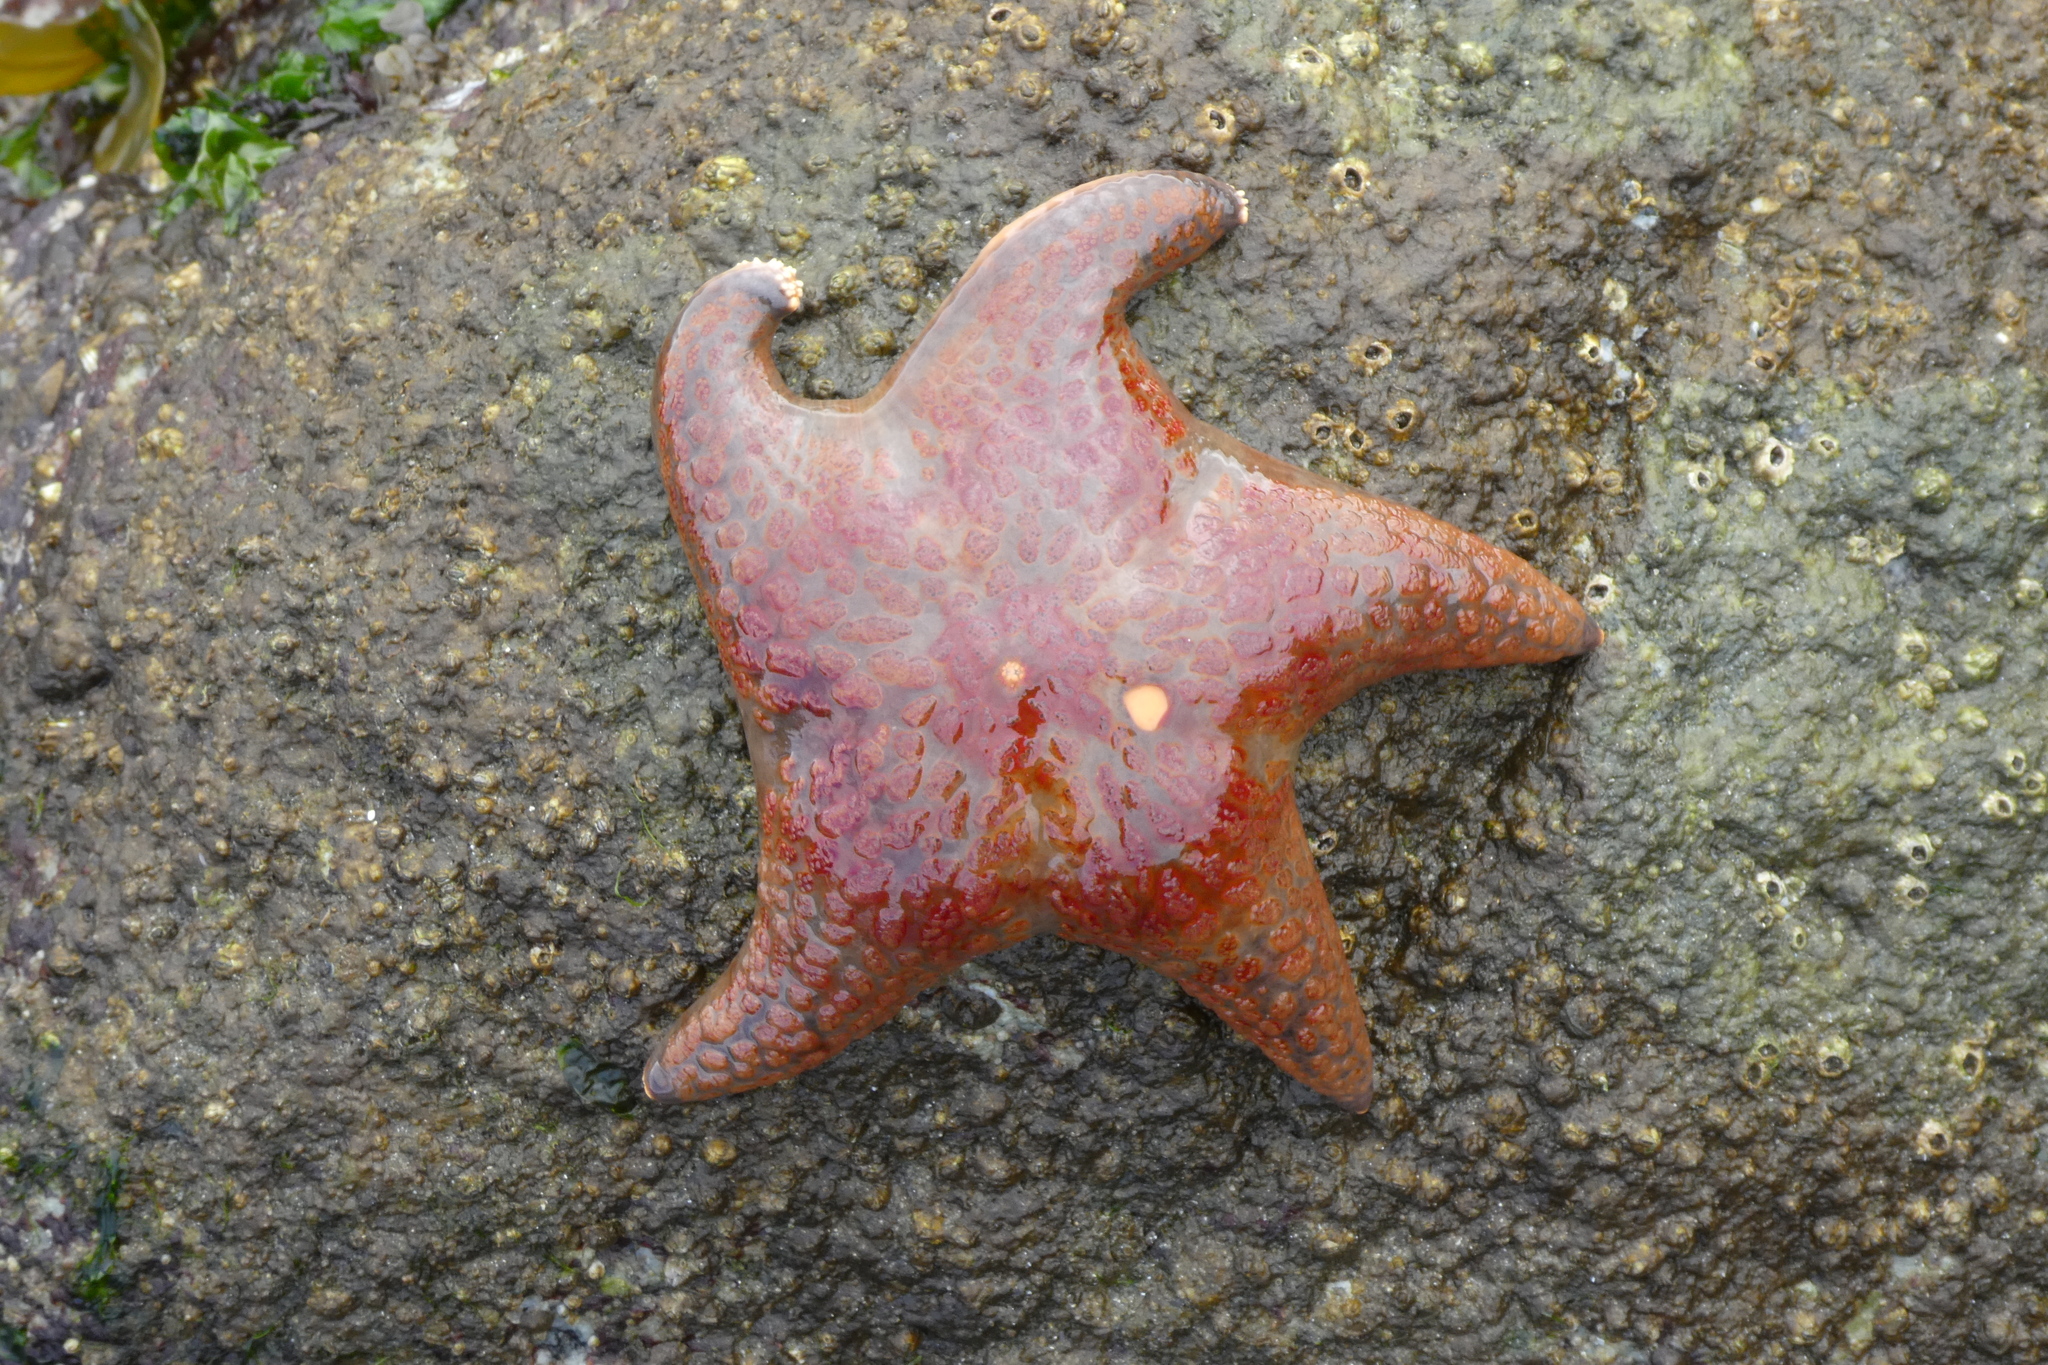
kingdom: Animalia
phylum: Echinodermata
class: Asteroidea
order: Valvatida
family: Asteropseidae
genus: Dermasterias
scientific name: Dermasterias imbricata
